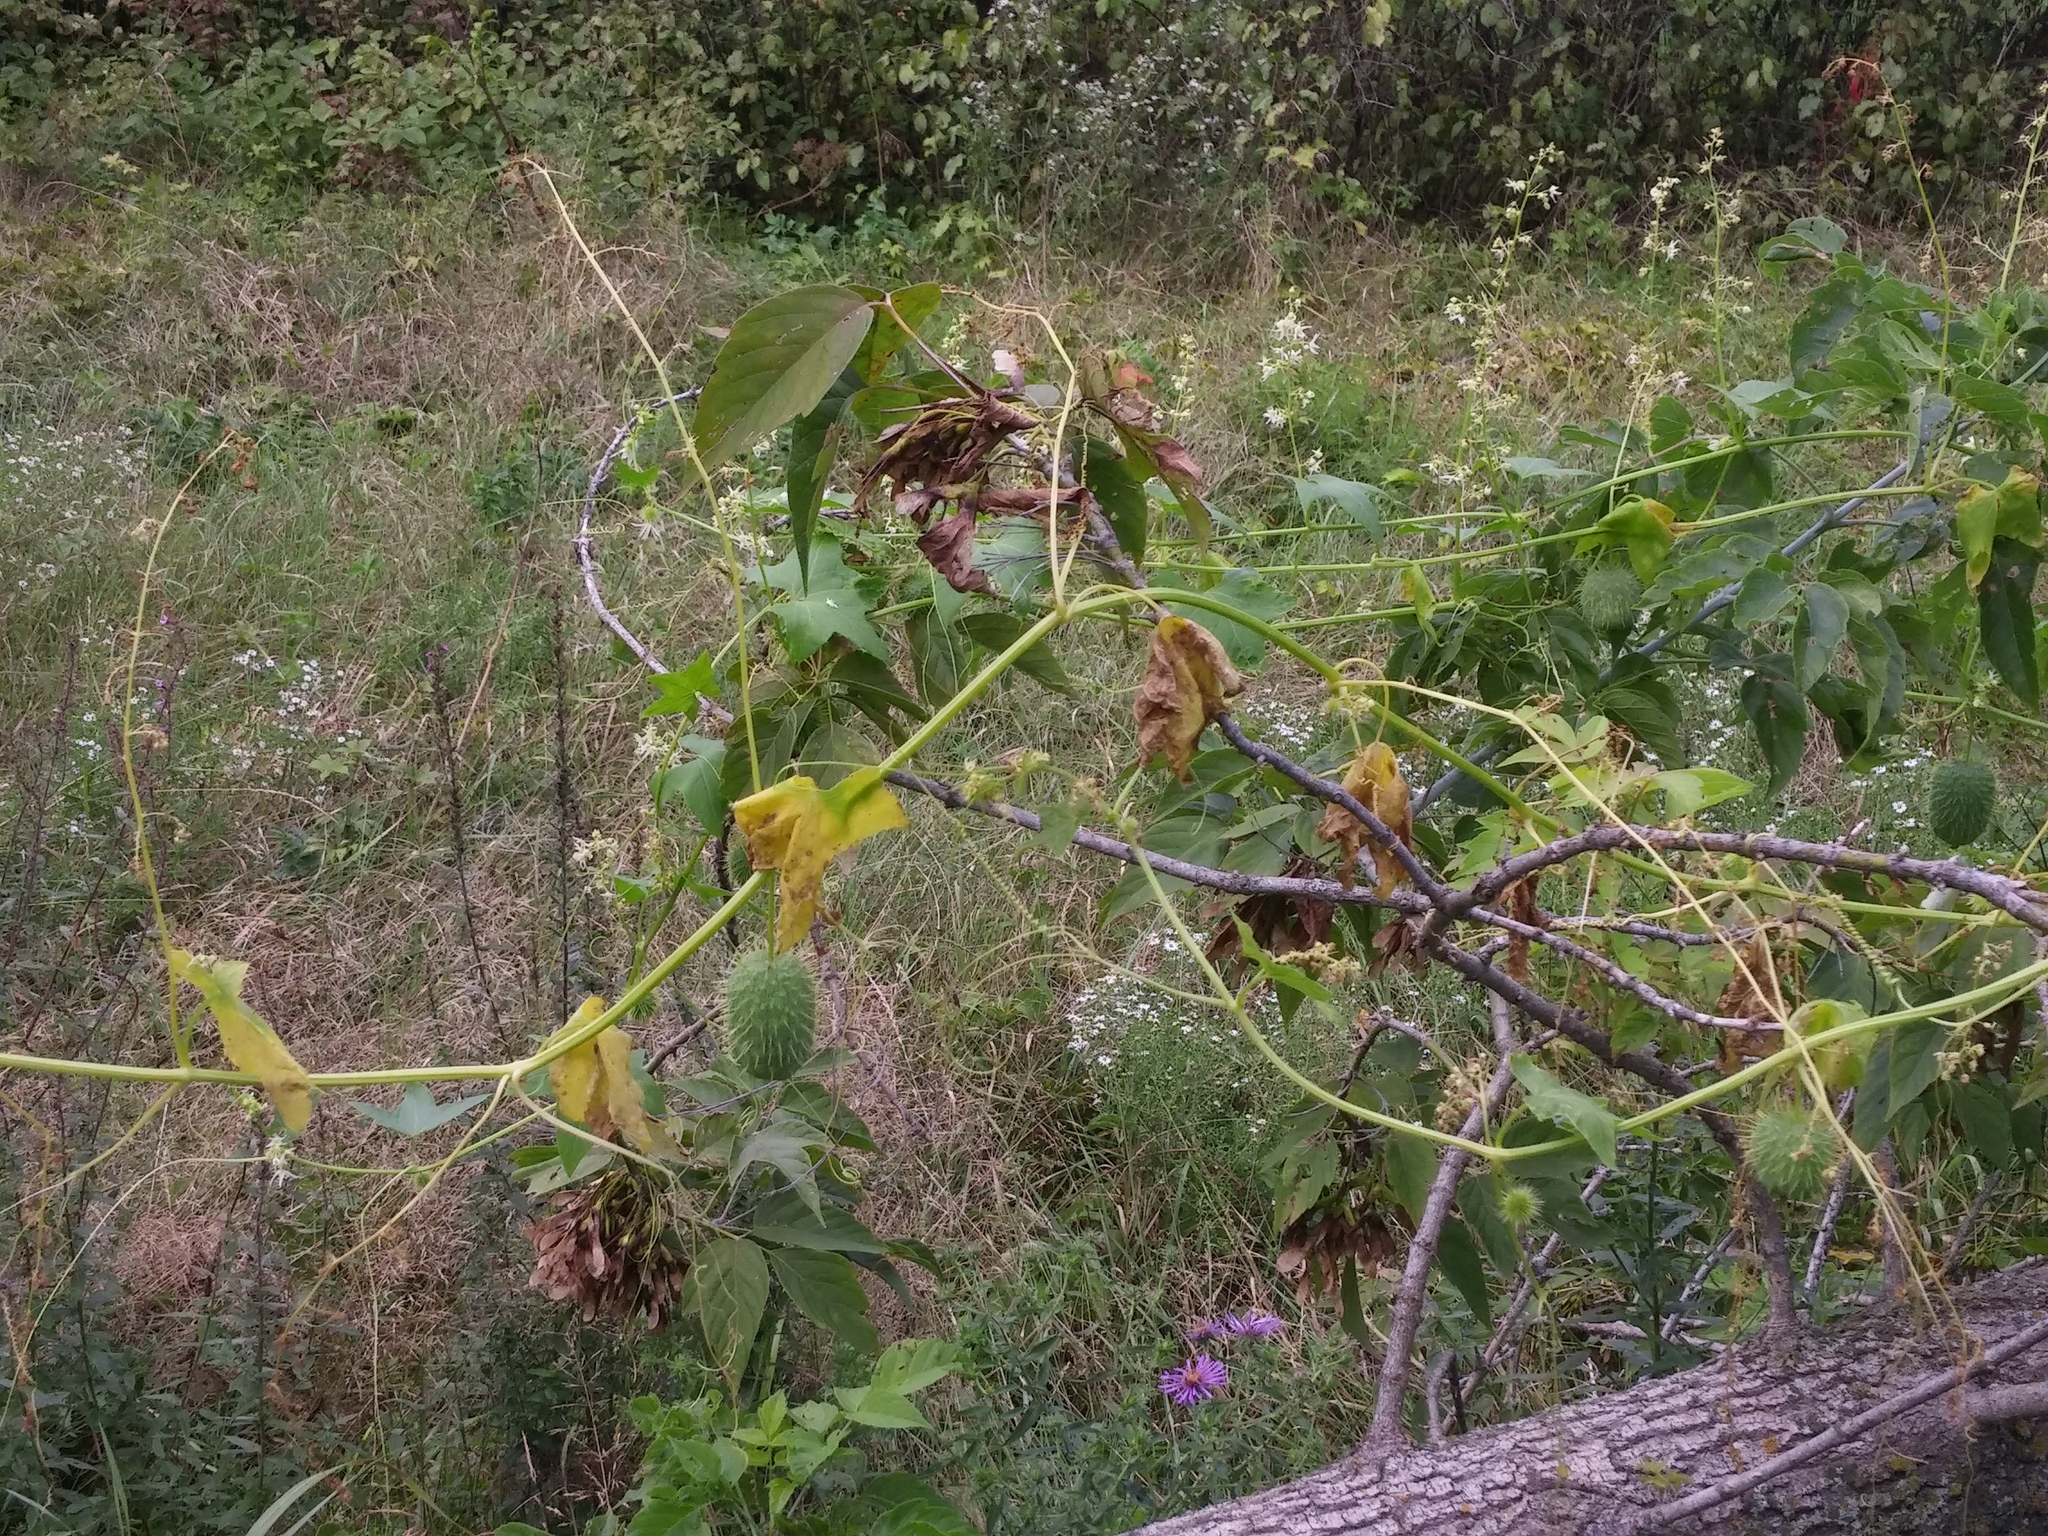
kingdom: Plantae
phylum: Tracheophyta
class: Magnoliopsida
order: Cucurbitales
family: Cucurbitaceae
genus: Echinocystis
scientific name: Echinocystis lobata
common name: Wild cucumber
